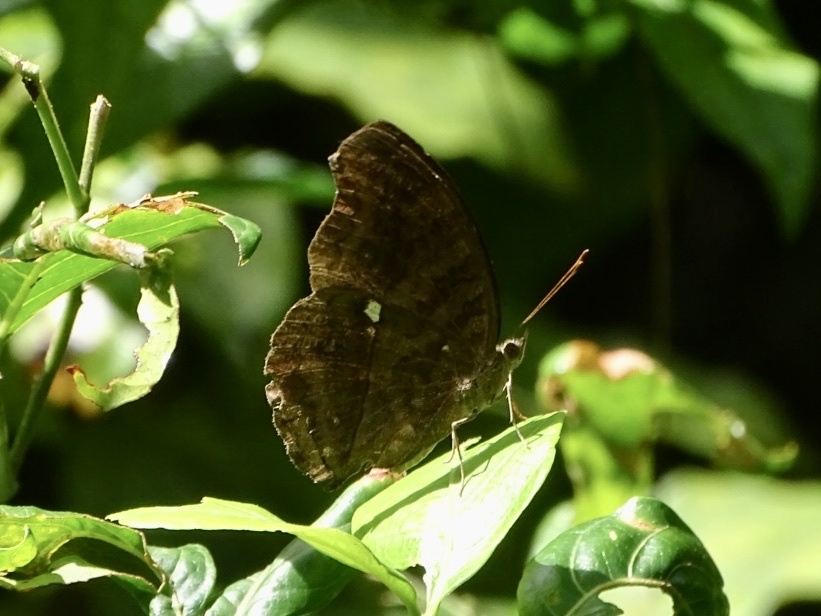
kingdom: Animalia
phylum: Arthropoda
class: Insecta
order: Lepidoptera
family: Nymphalidae
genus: Junonia
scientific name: Junonia iphita
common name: Chocolate pansy
